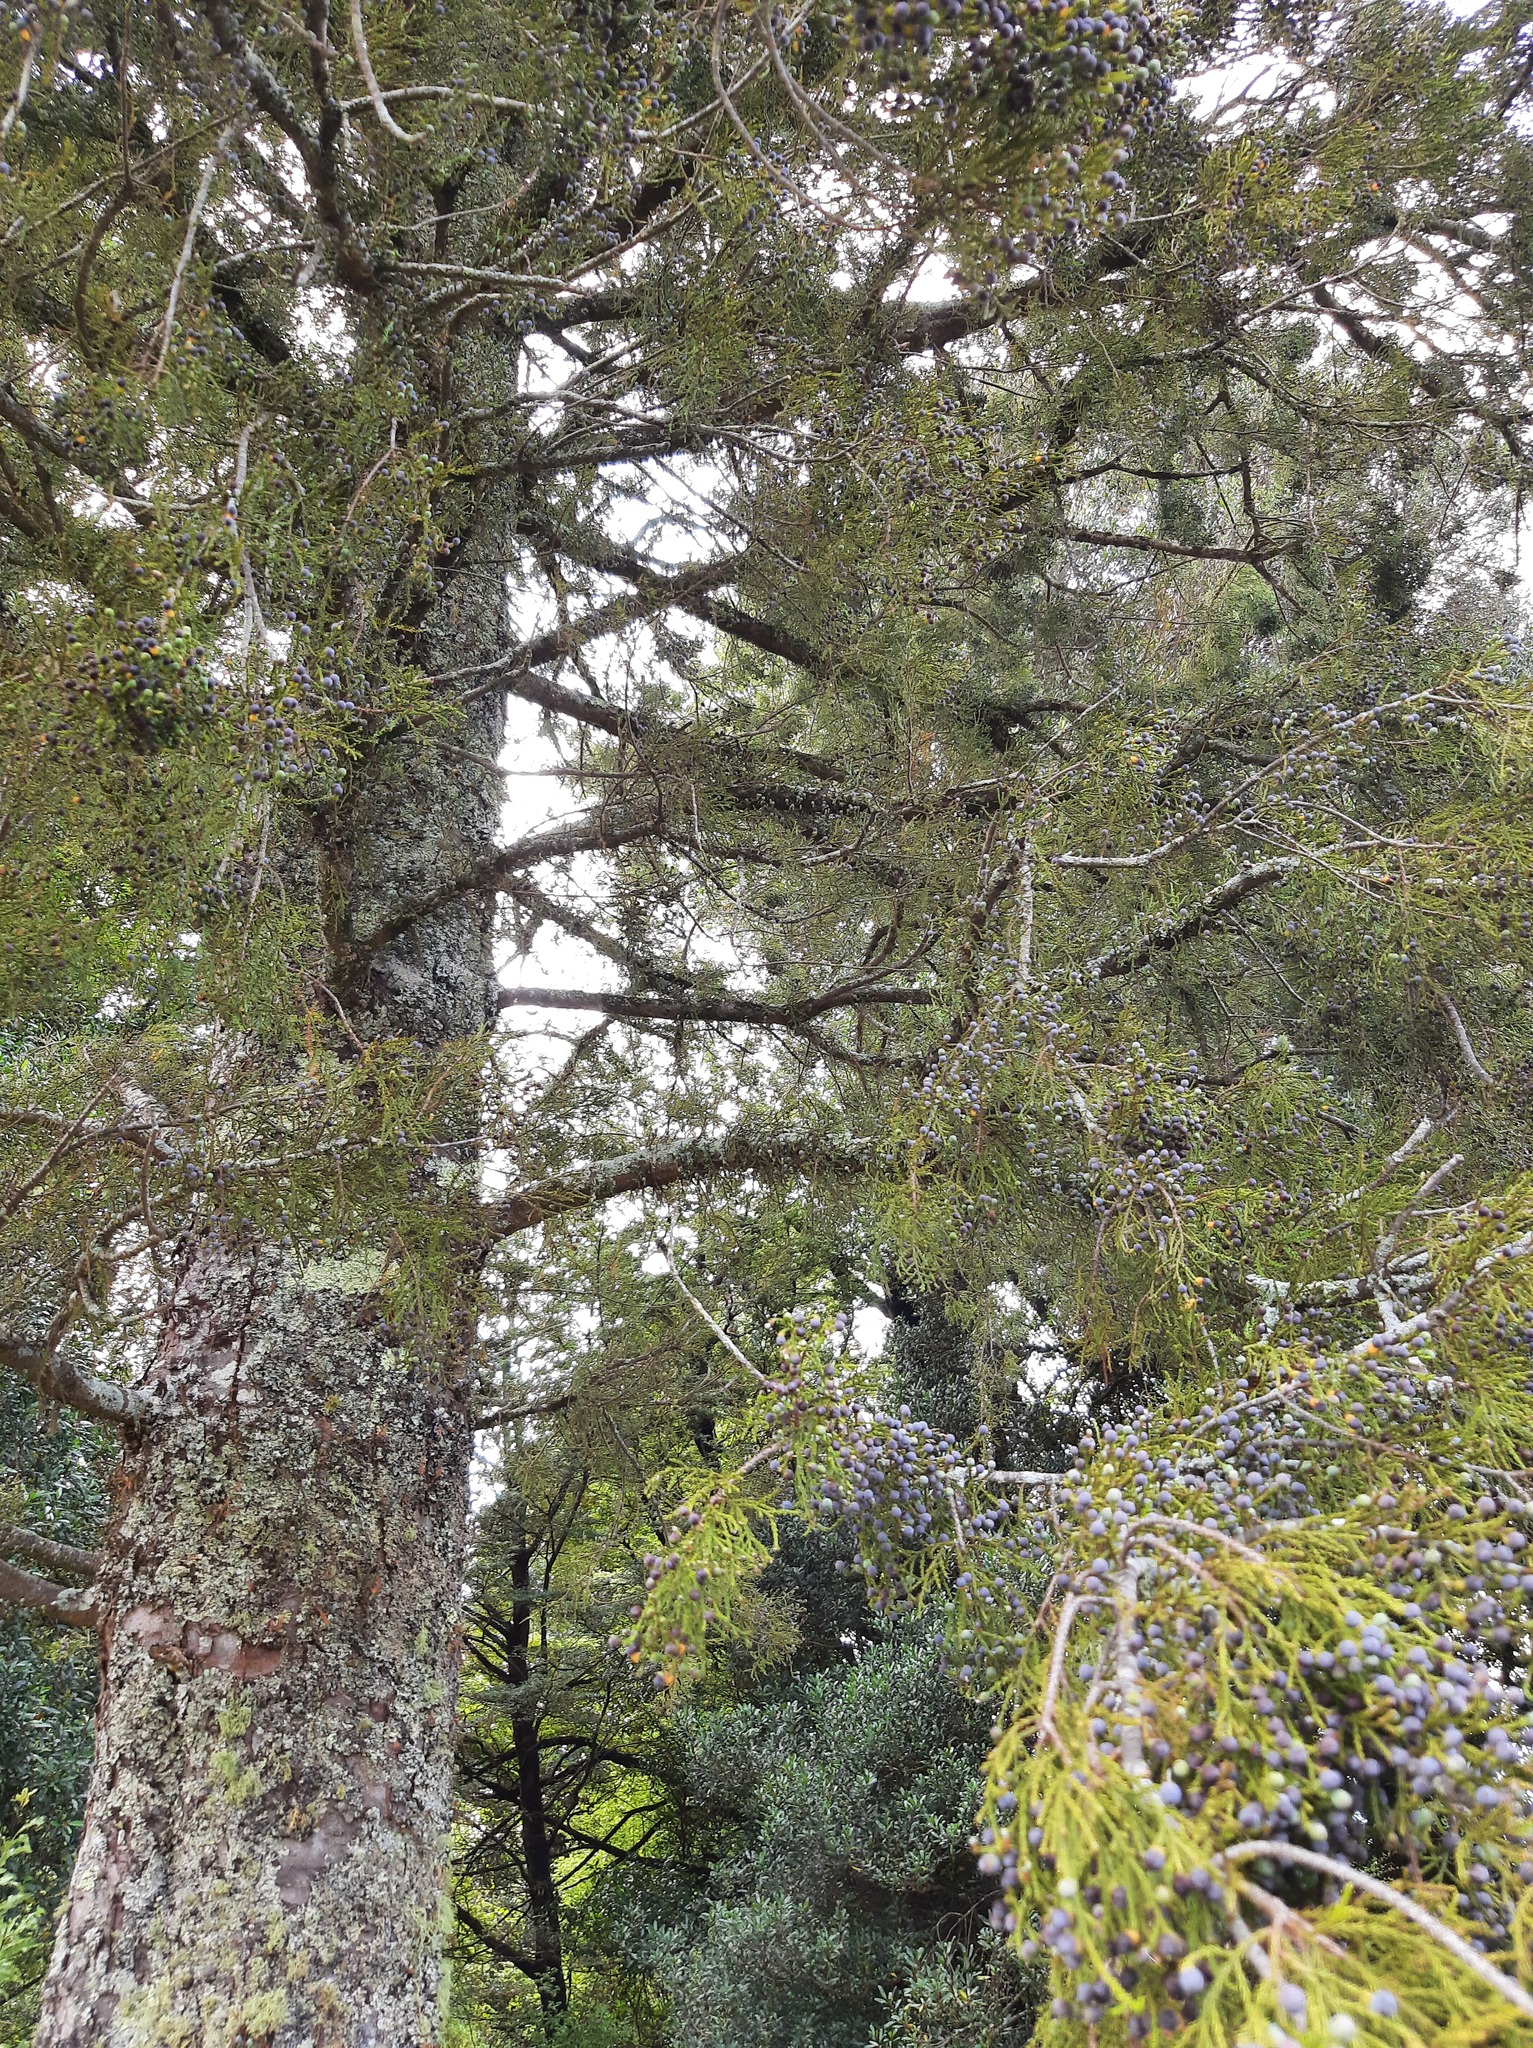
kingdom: Plantae
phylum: Tracheophyta
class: Pinopsida
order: Pinales
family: Podocarpaceae
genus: Dacrycarpus
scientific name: Dacrycarpus dacrydioides
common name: White pine
